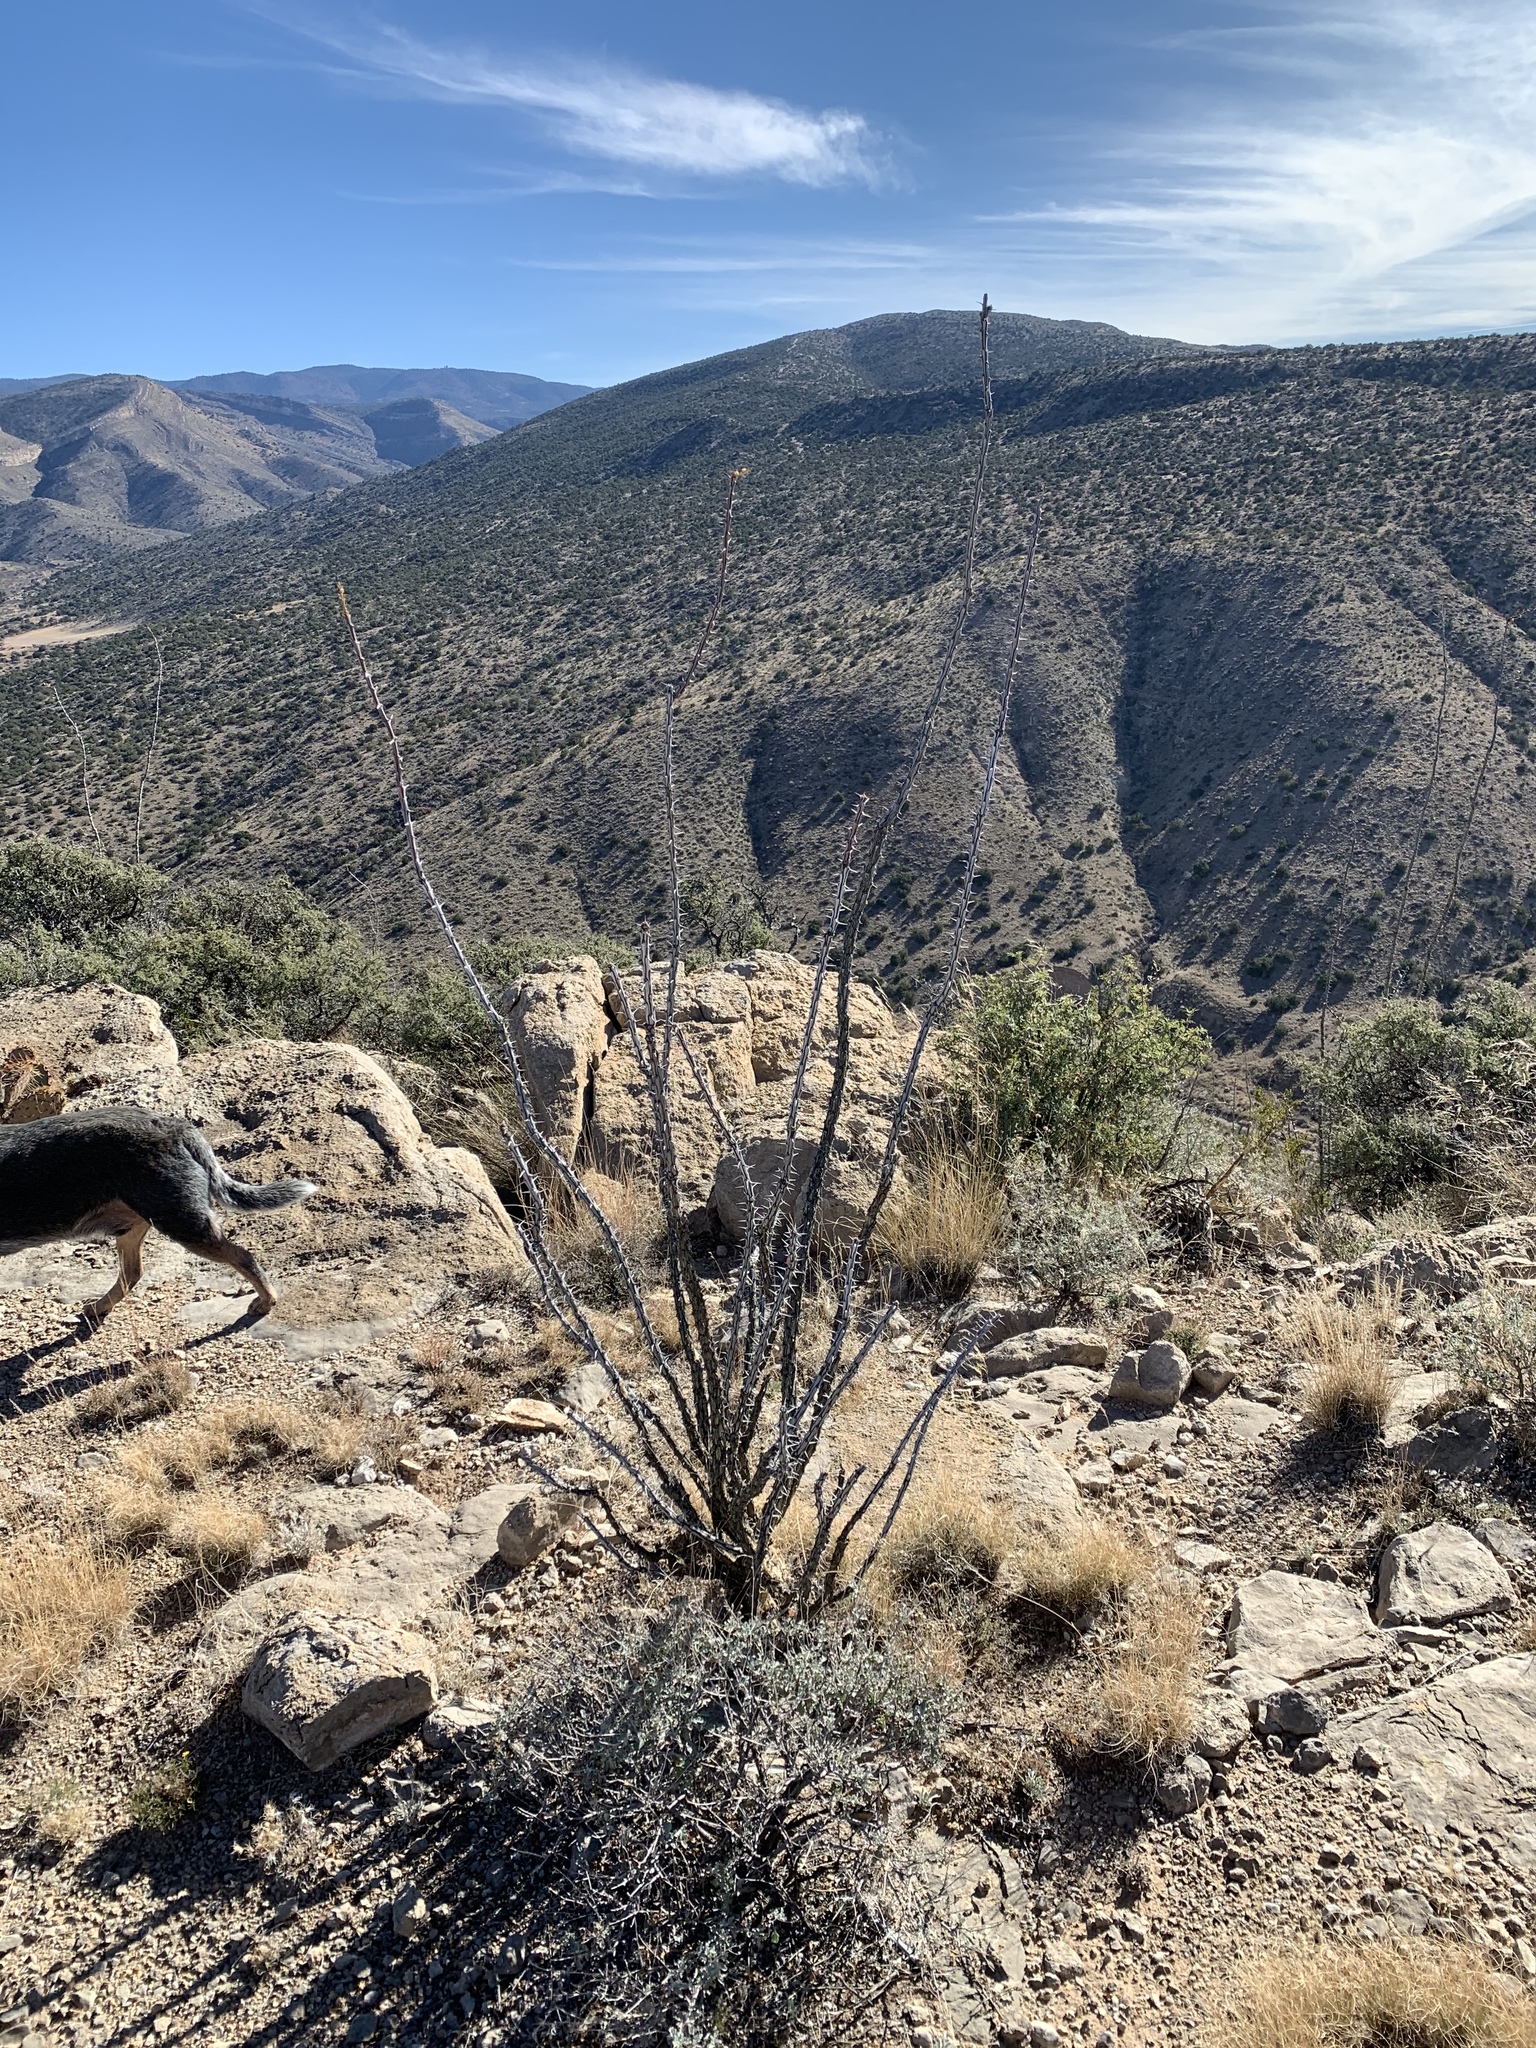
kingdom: Plantae
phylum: Tracheophyta
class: Magnoliopsida
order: Ericales
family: Fouquieriaceae
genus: Fouquieria
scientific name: Fouquieria splendens
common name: Vine-cactus
